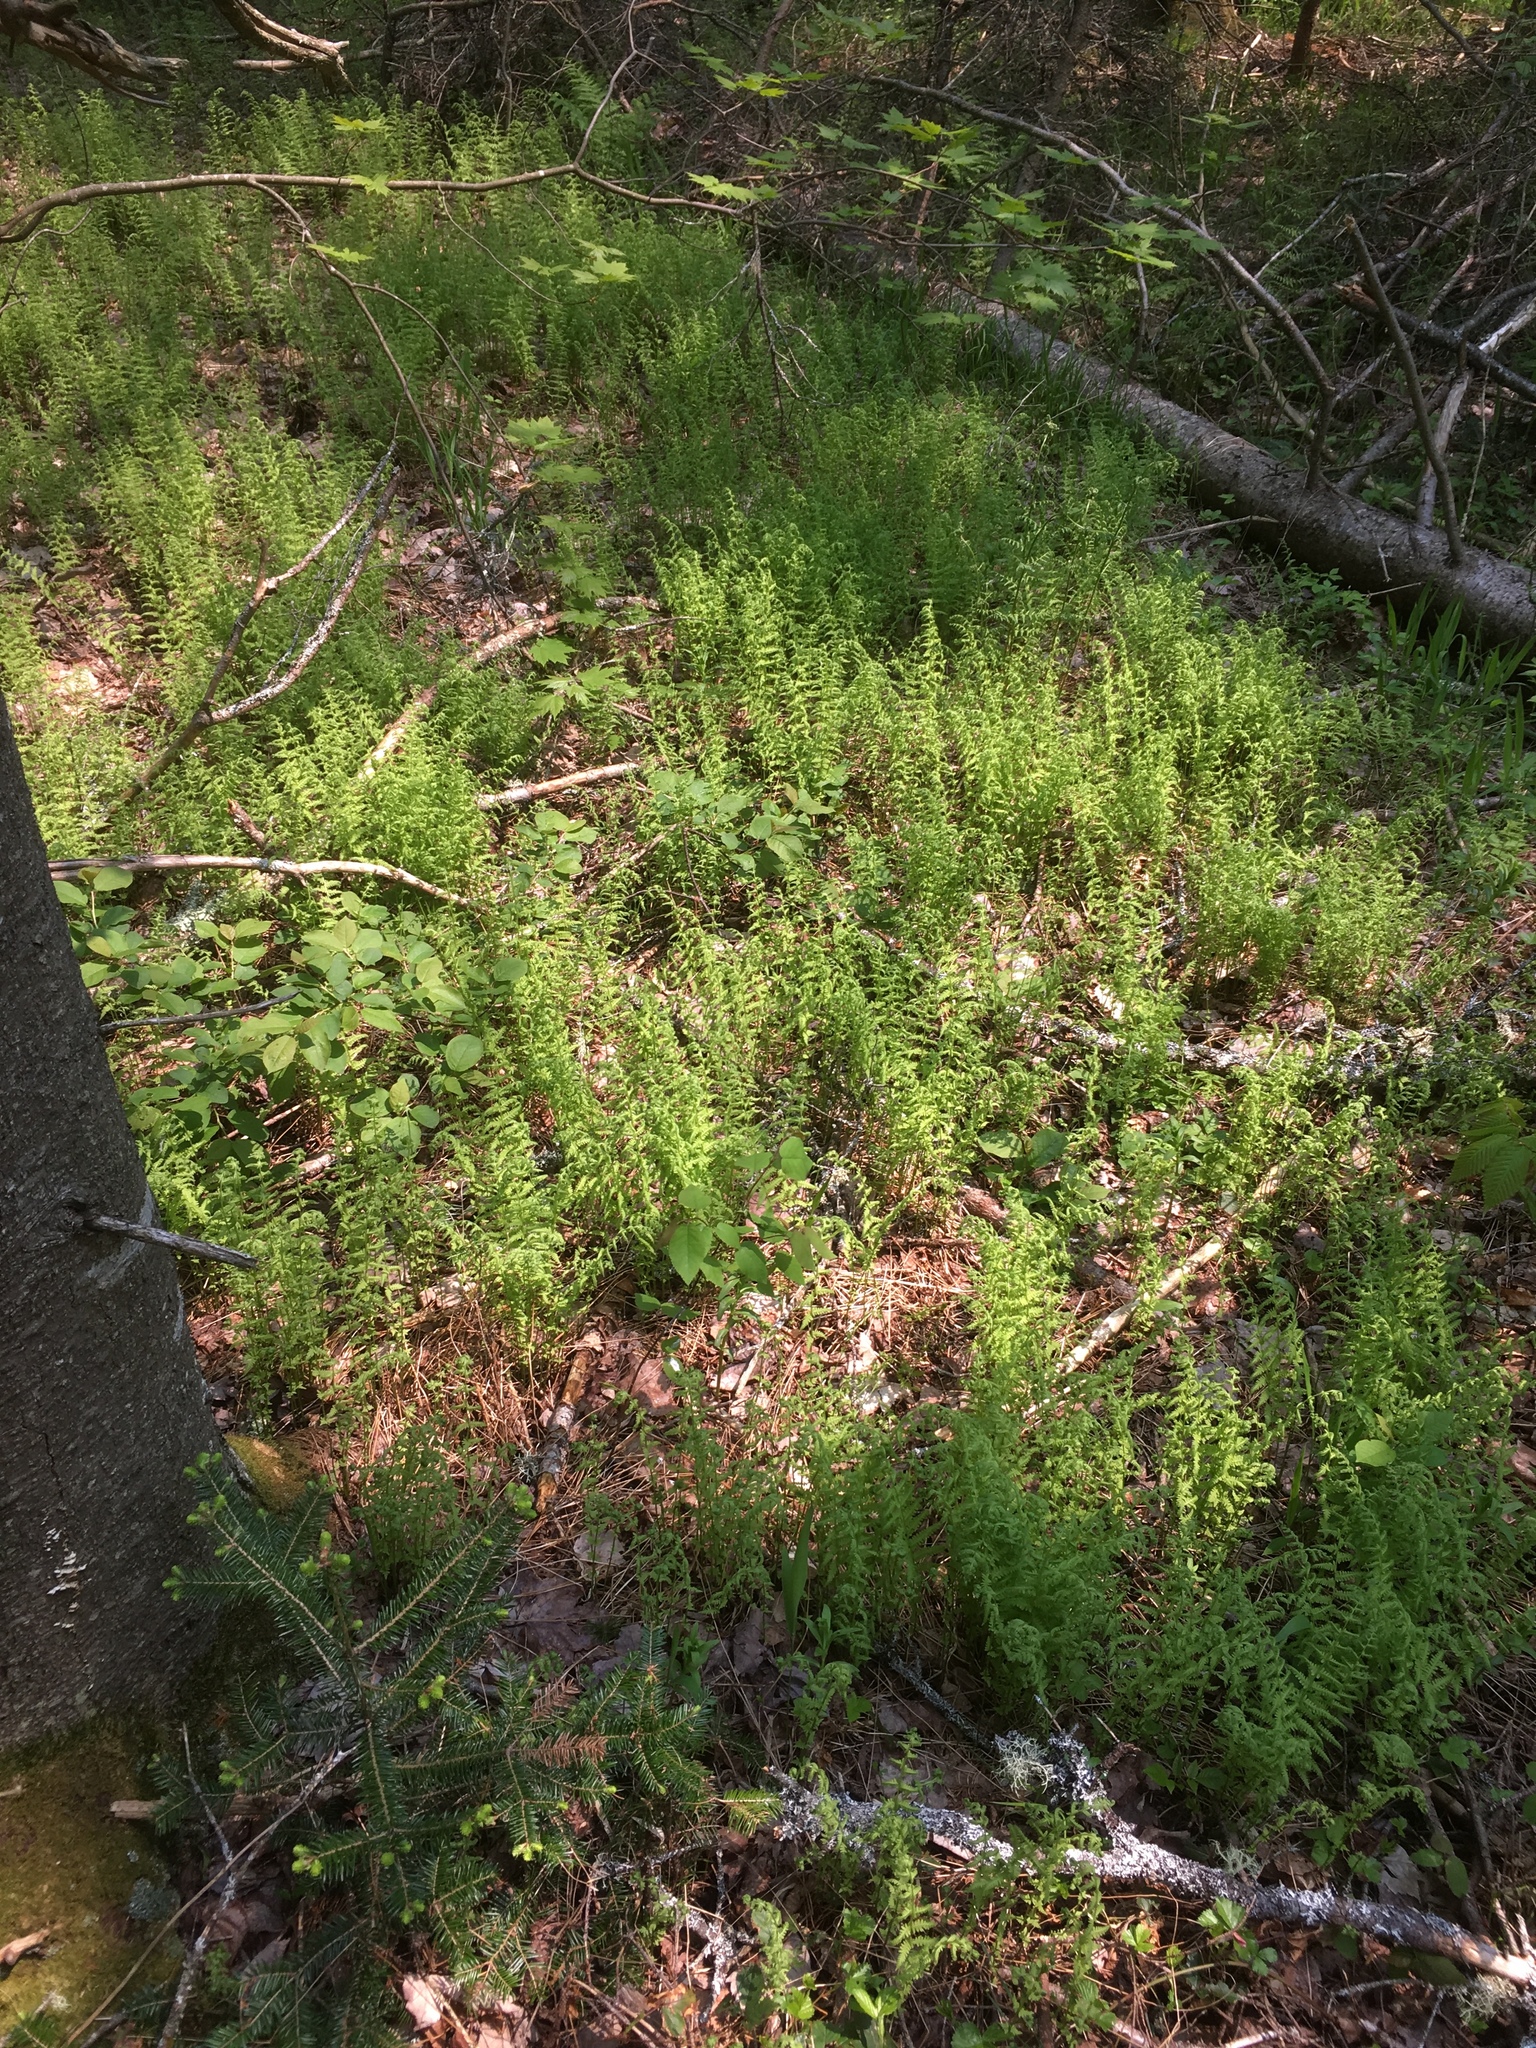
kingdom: Plantae
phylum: Tracheophyta
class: Polypodiopsida
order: Polypodiales
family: Thelypteridaceae
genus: Amauropelta
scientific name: Amauropelta noveboracensis
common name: New york fern
